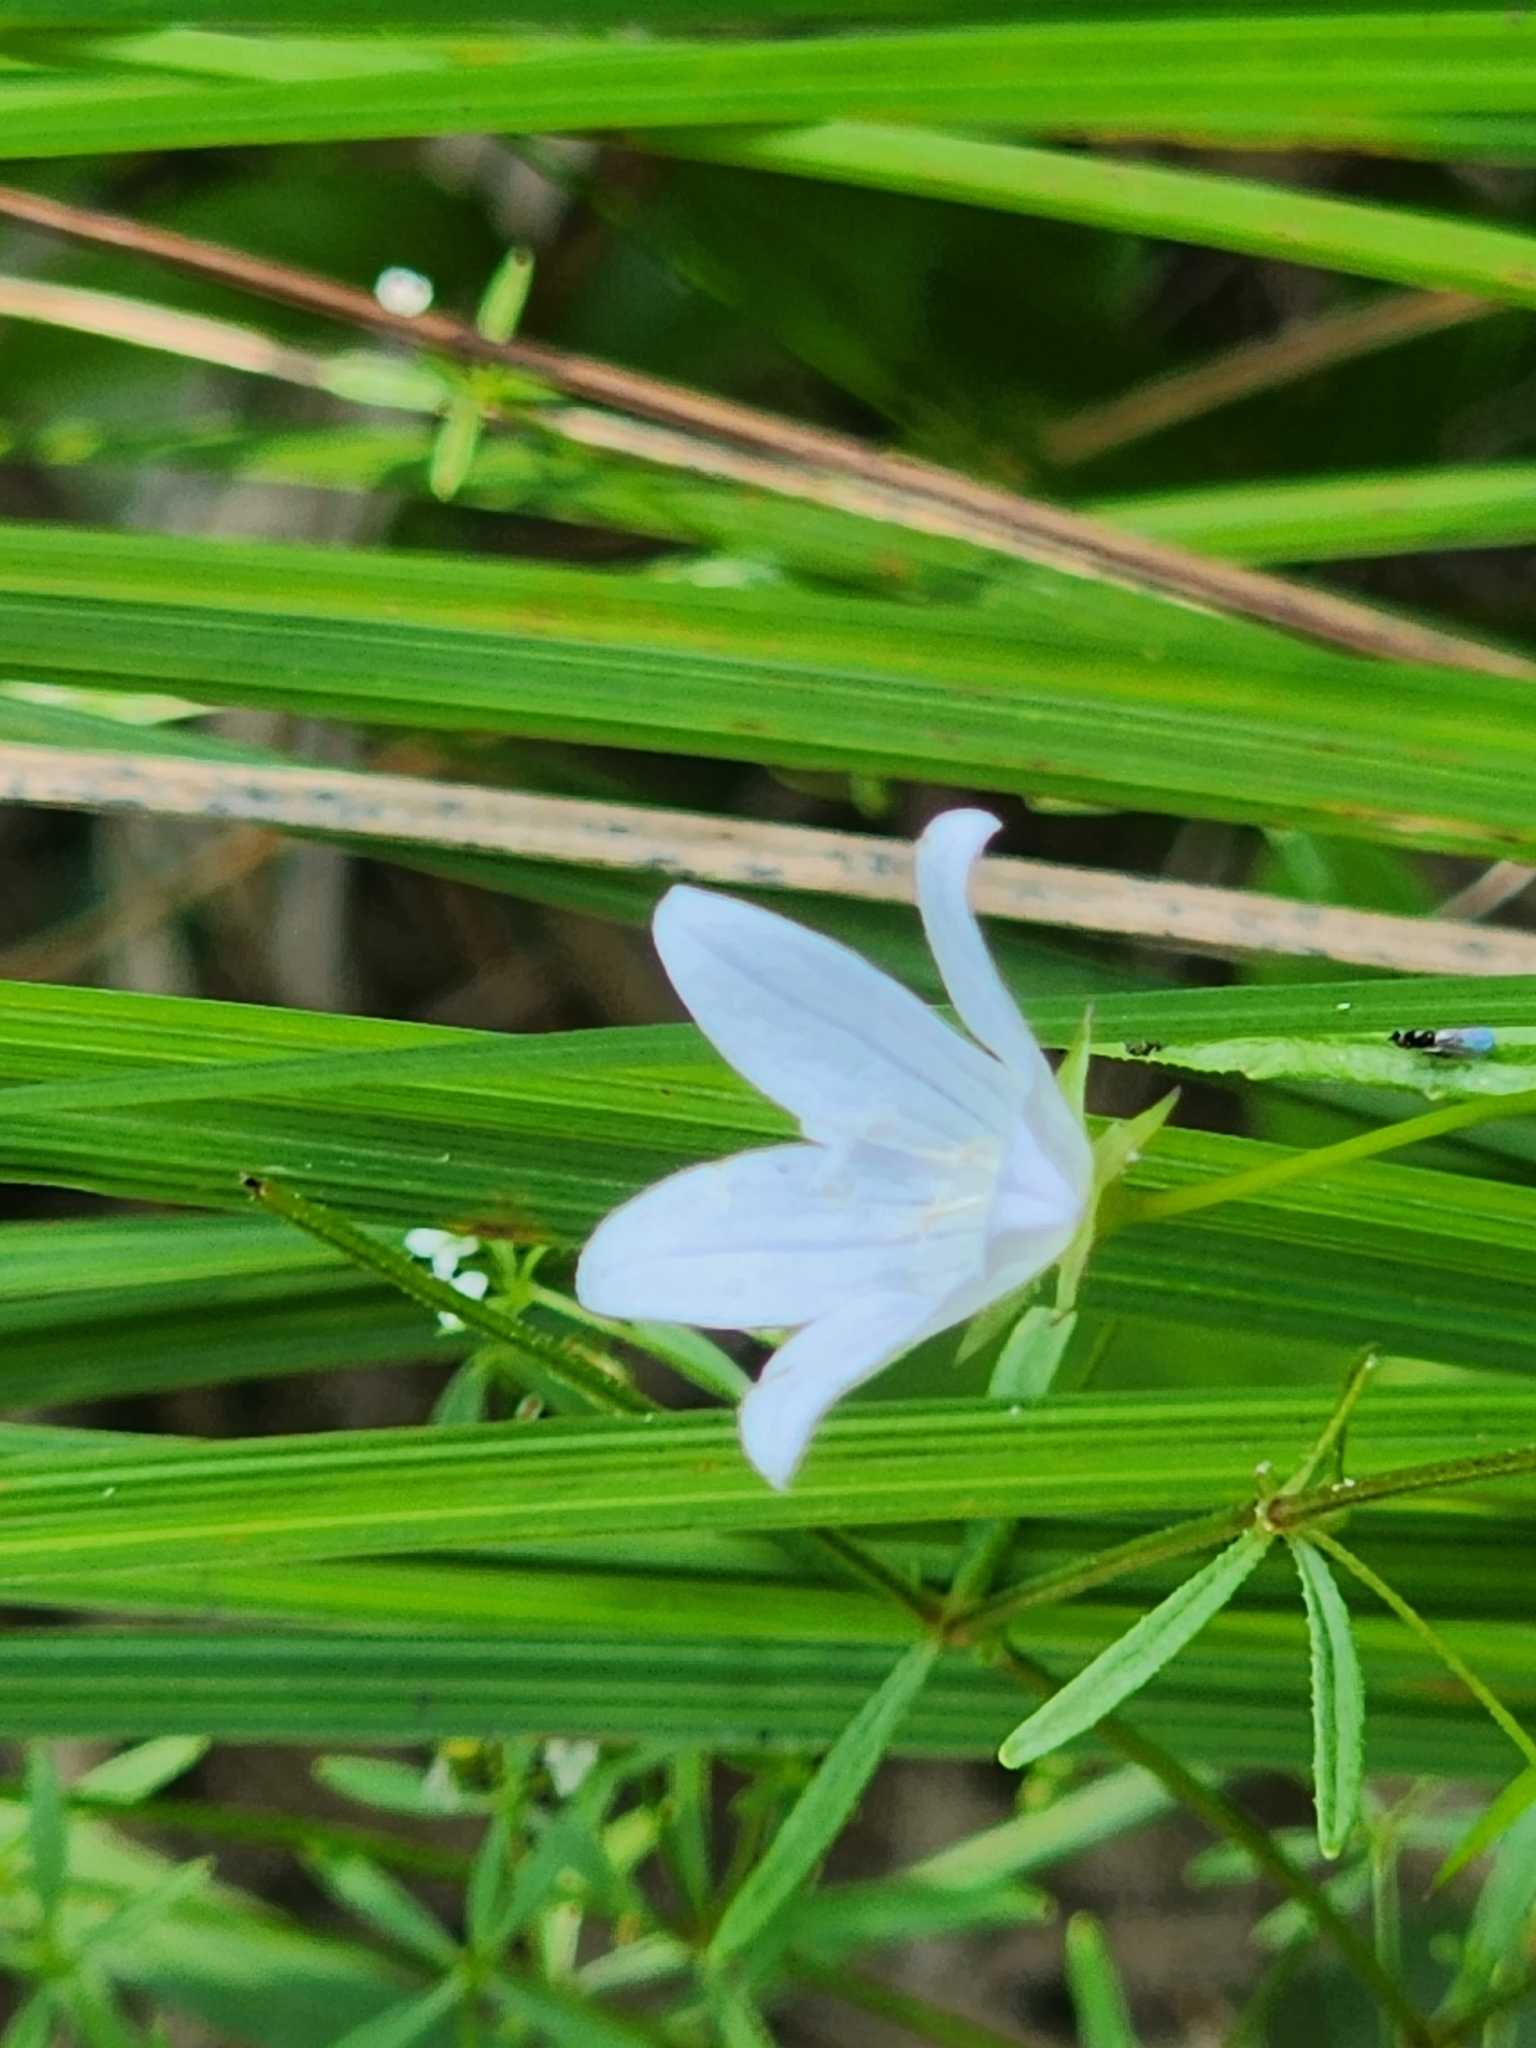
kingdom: Plantae
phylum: Tracheophyta
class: Magnoliopsida
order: Asterales
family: Campanulaceae
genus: Palustricodon
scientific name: Palustricodon aparinoides
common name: Bedstraw bellflower
